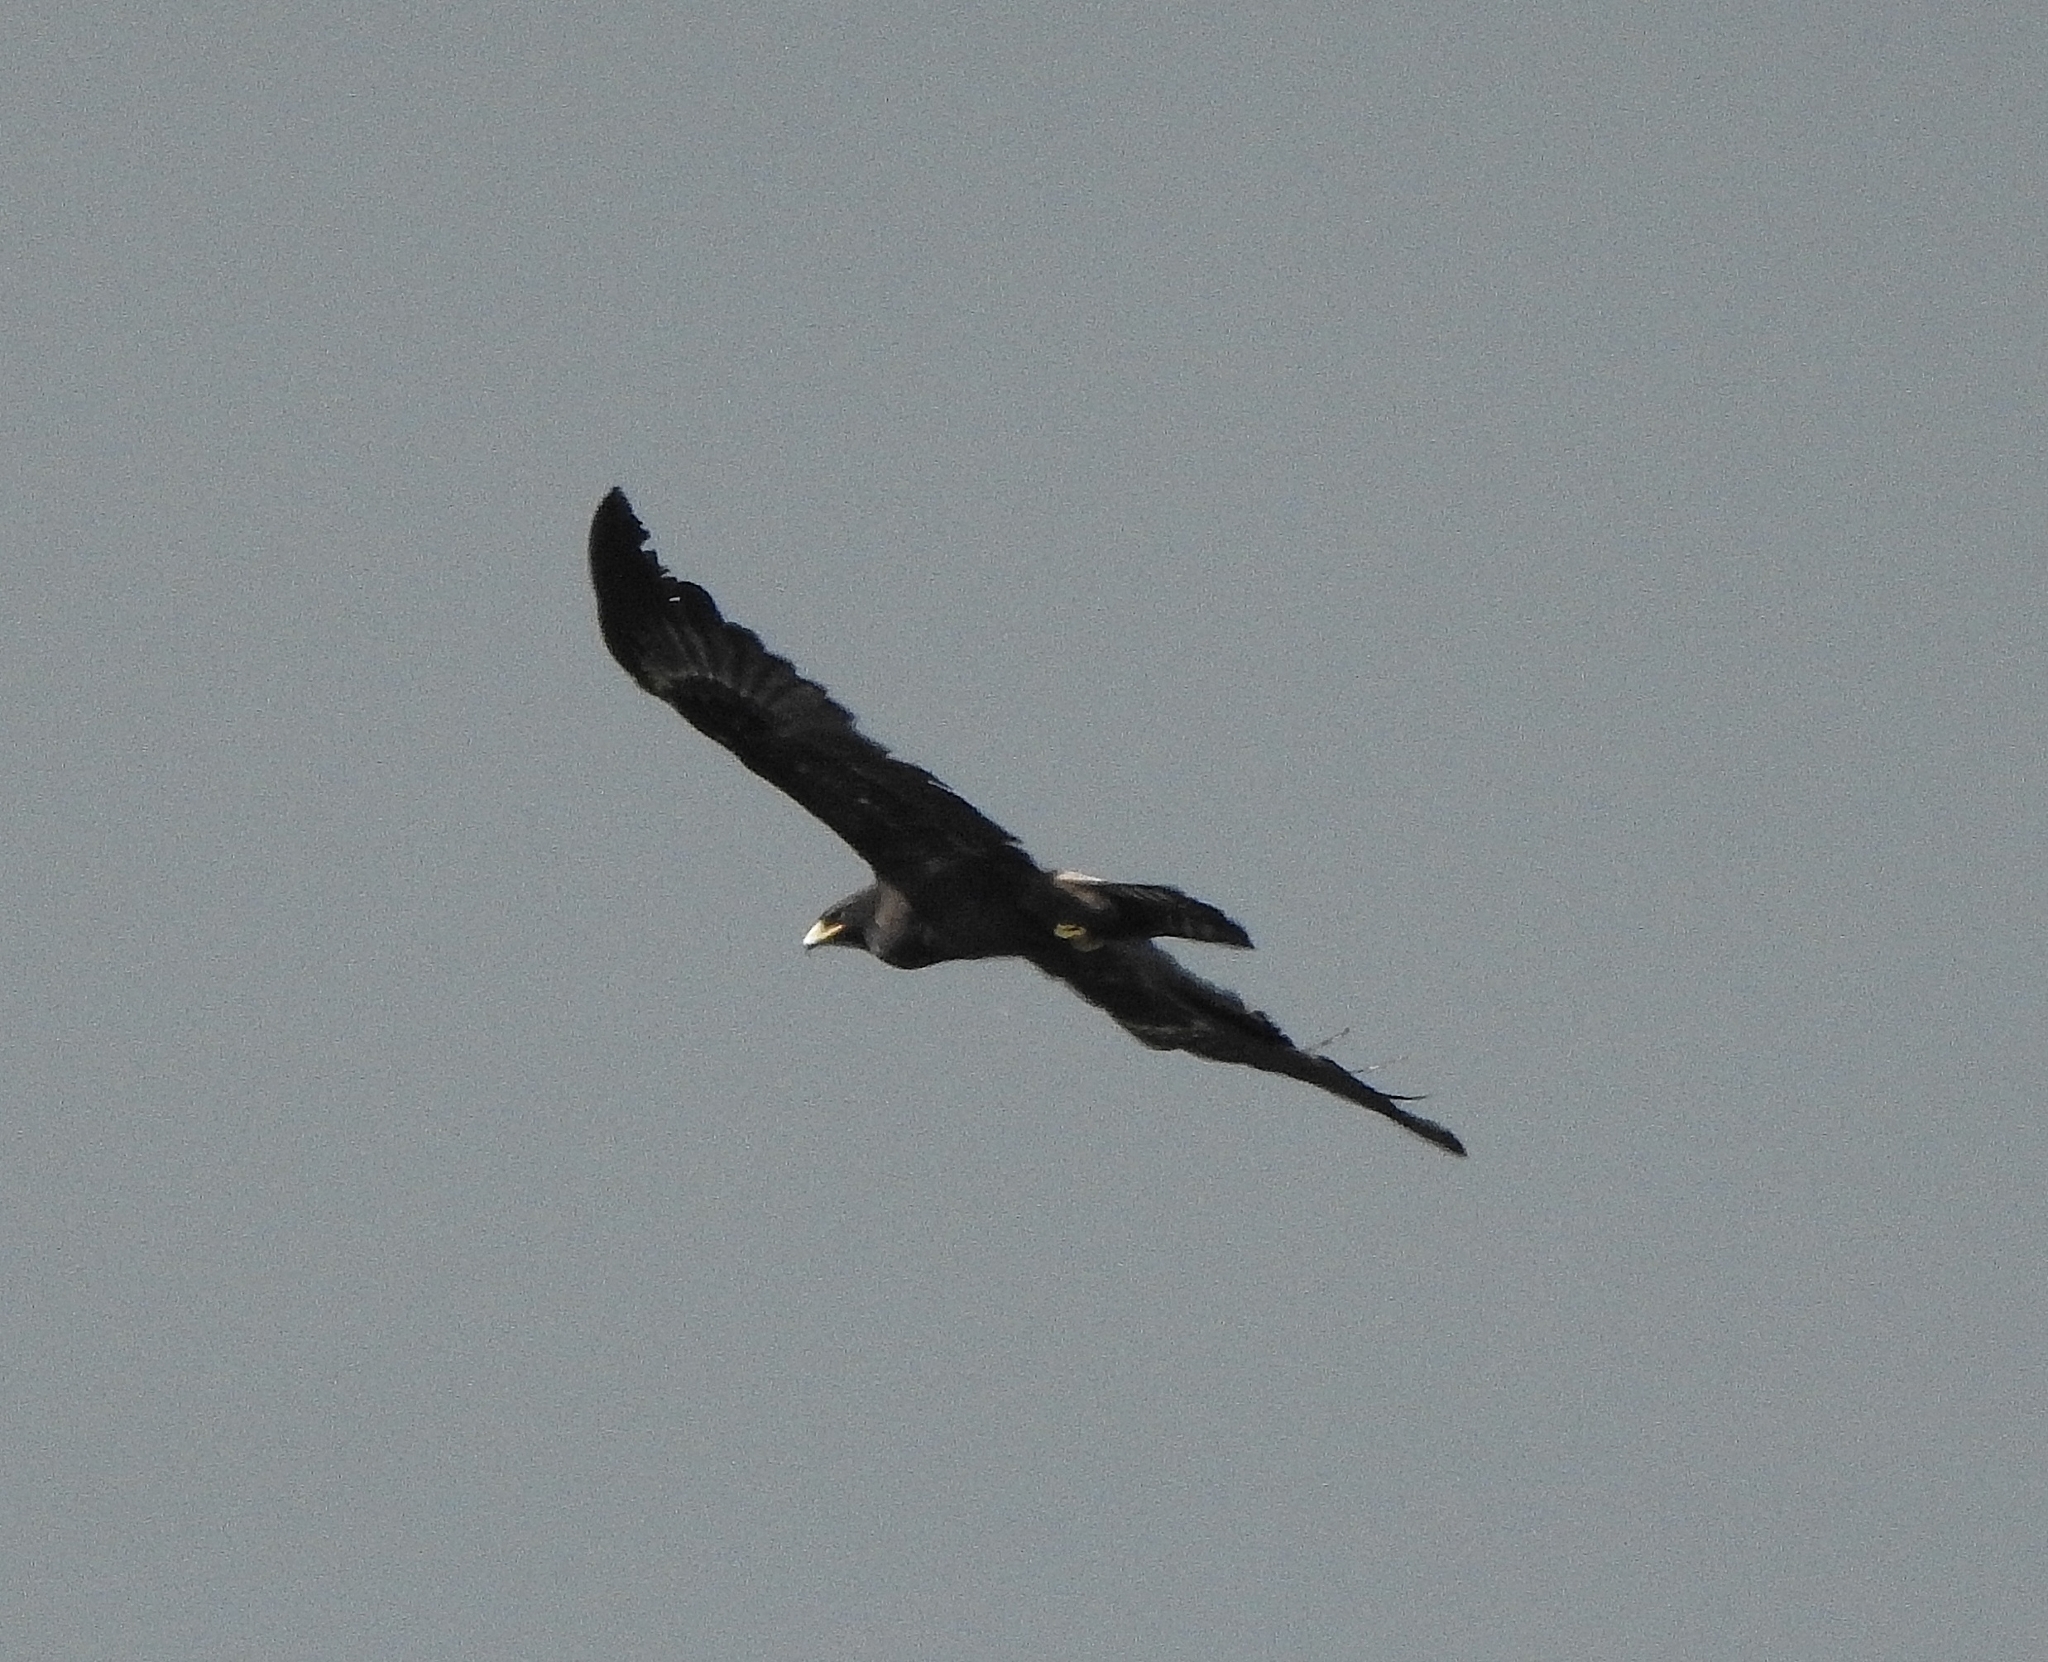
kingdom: Animalia
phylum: Chordata
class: Aves
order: Accipitriformes
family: Accipitridae
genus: Ictinaetus
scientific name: Ictinaetus malayensis
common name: Black eagle
